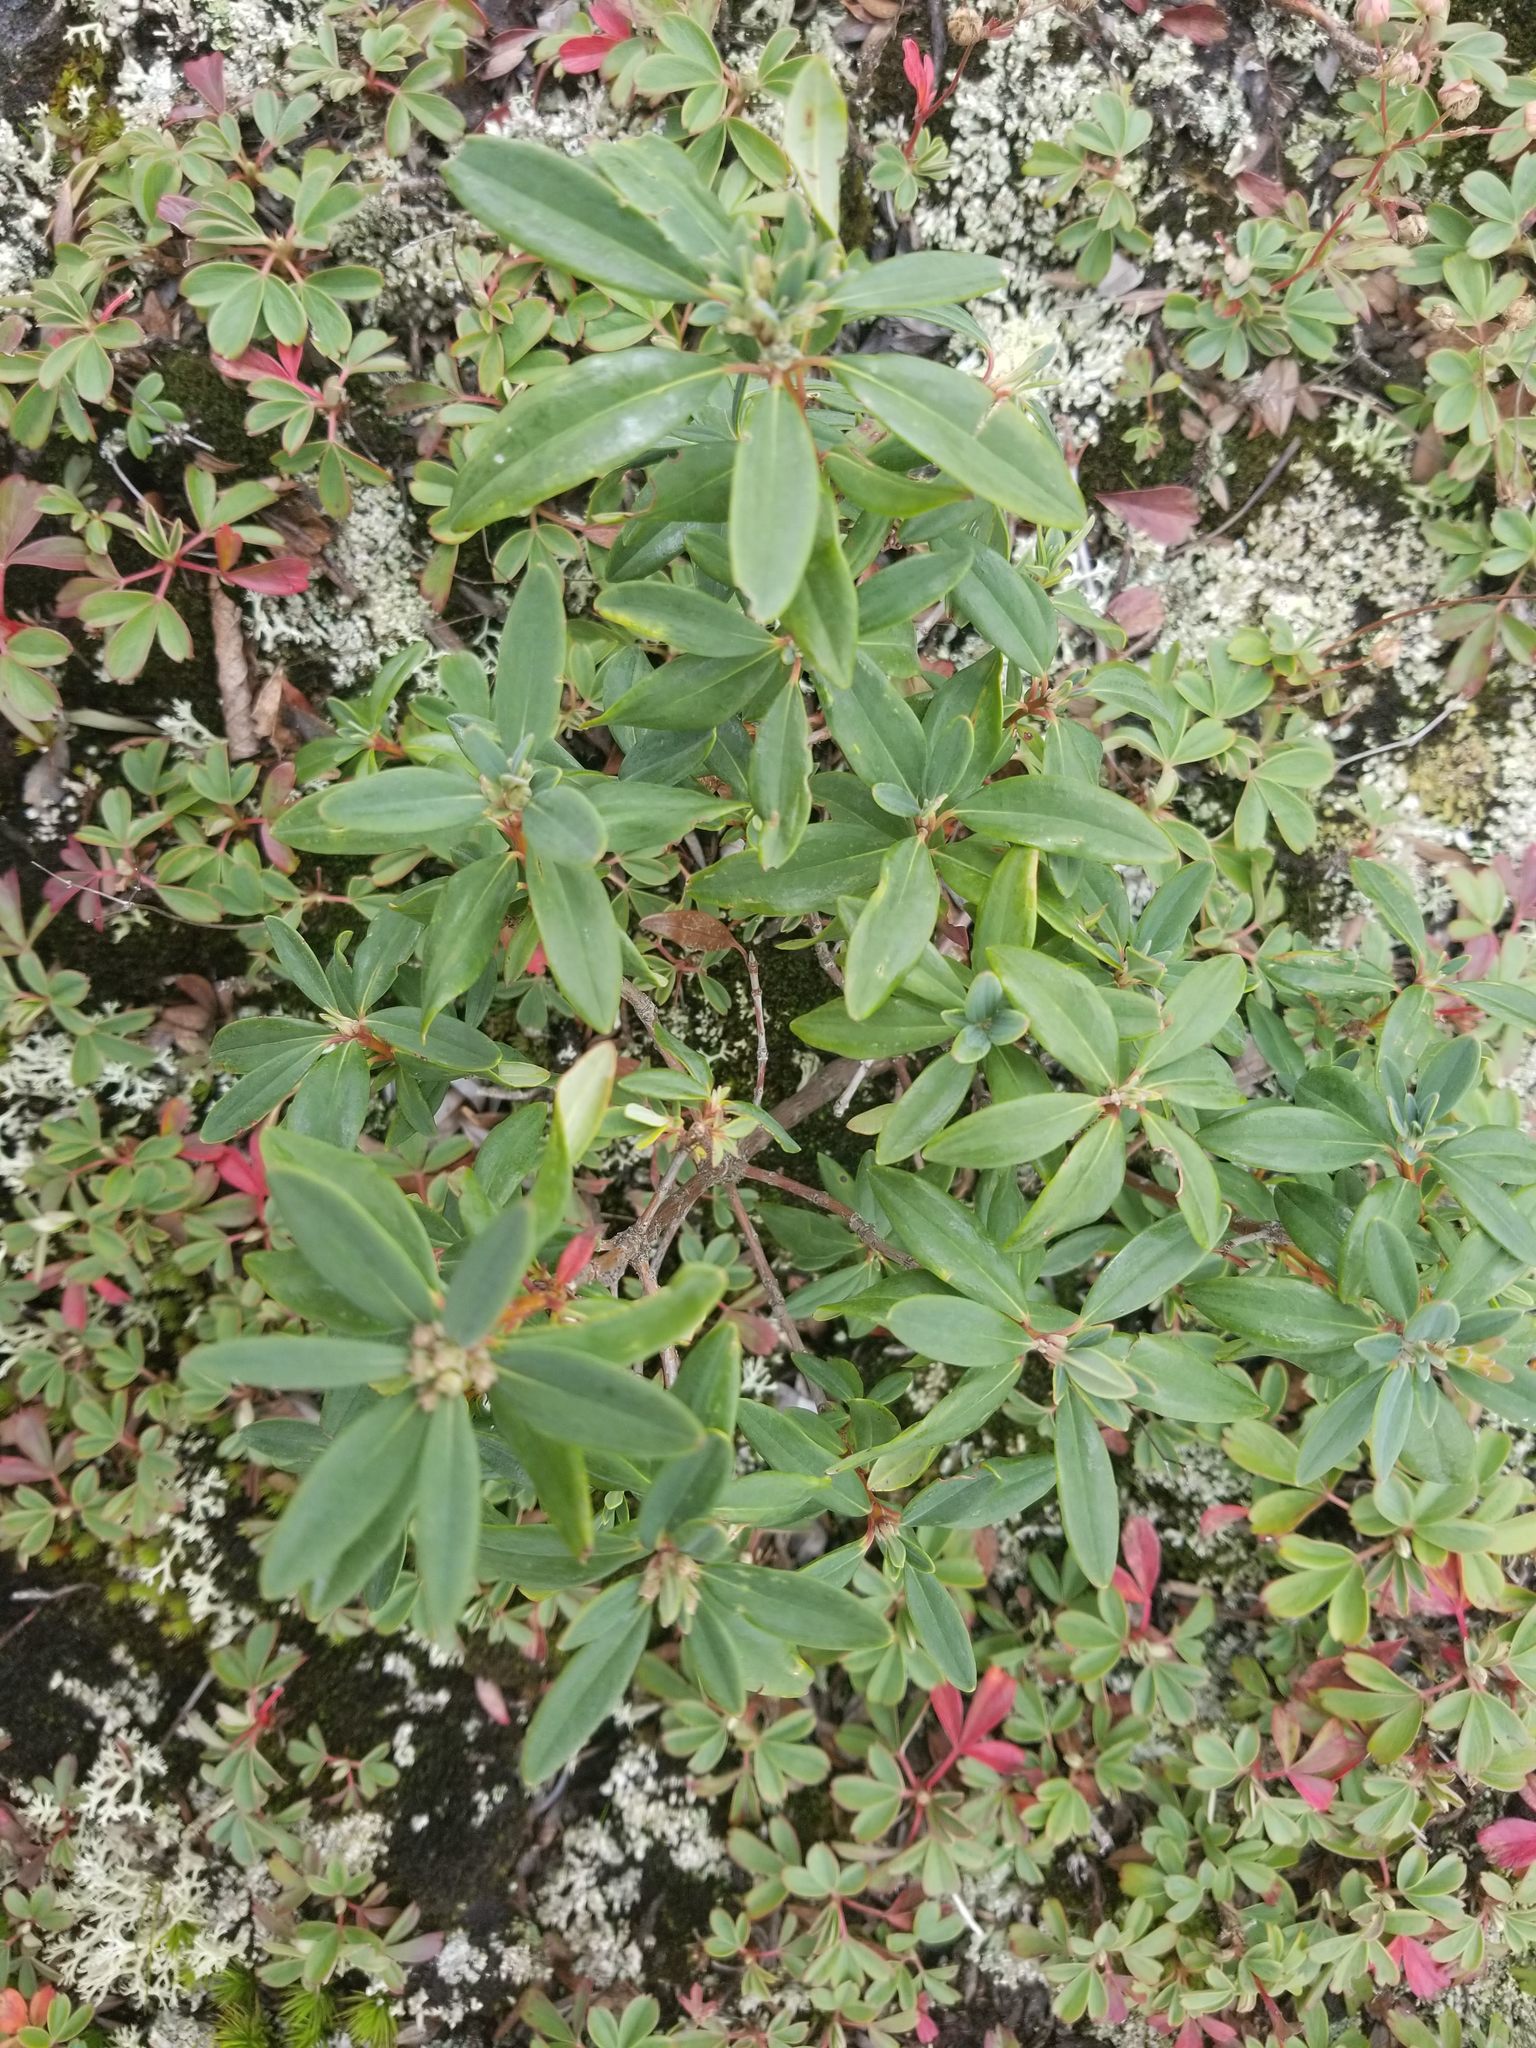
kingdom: Plantae
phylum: Tracheophyta
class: Magnoliopsida
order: Ericales
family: Ericaceae
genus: Kalmia
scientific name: Kalmia angustifolia
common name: Sheep-laurel
